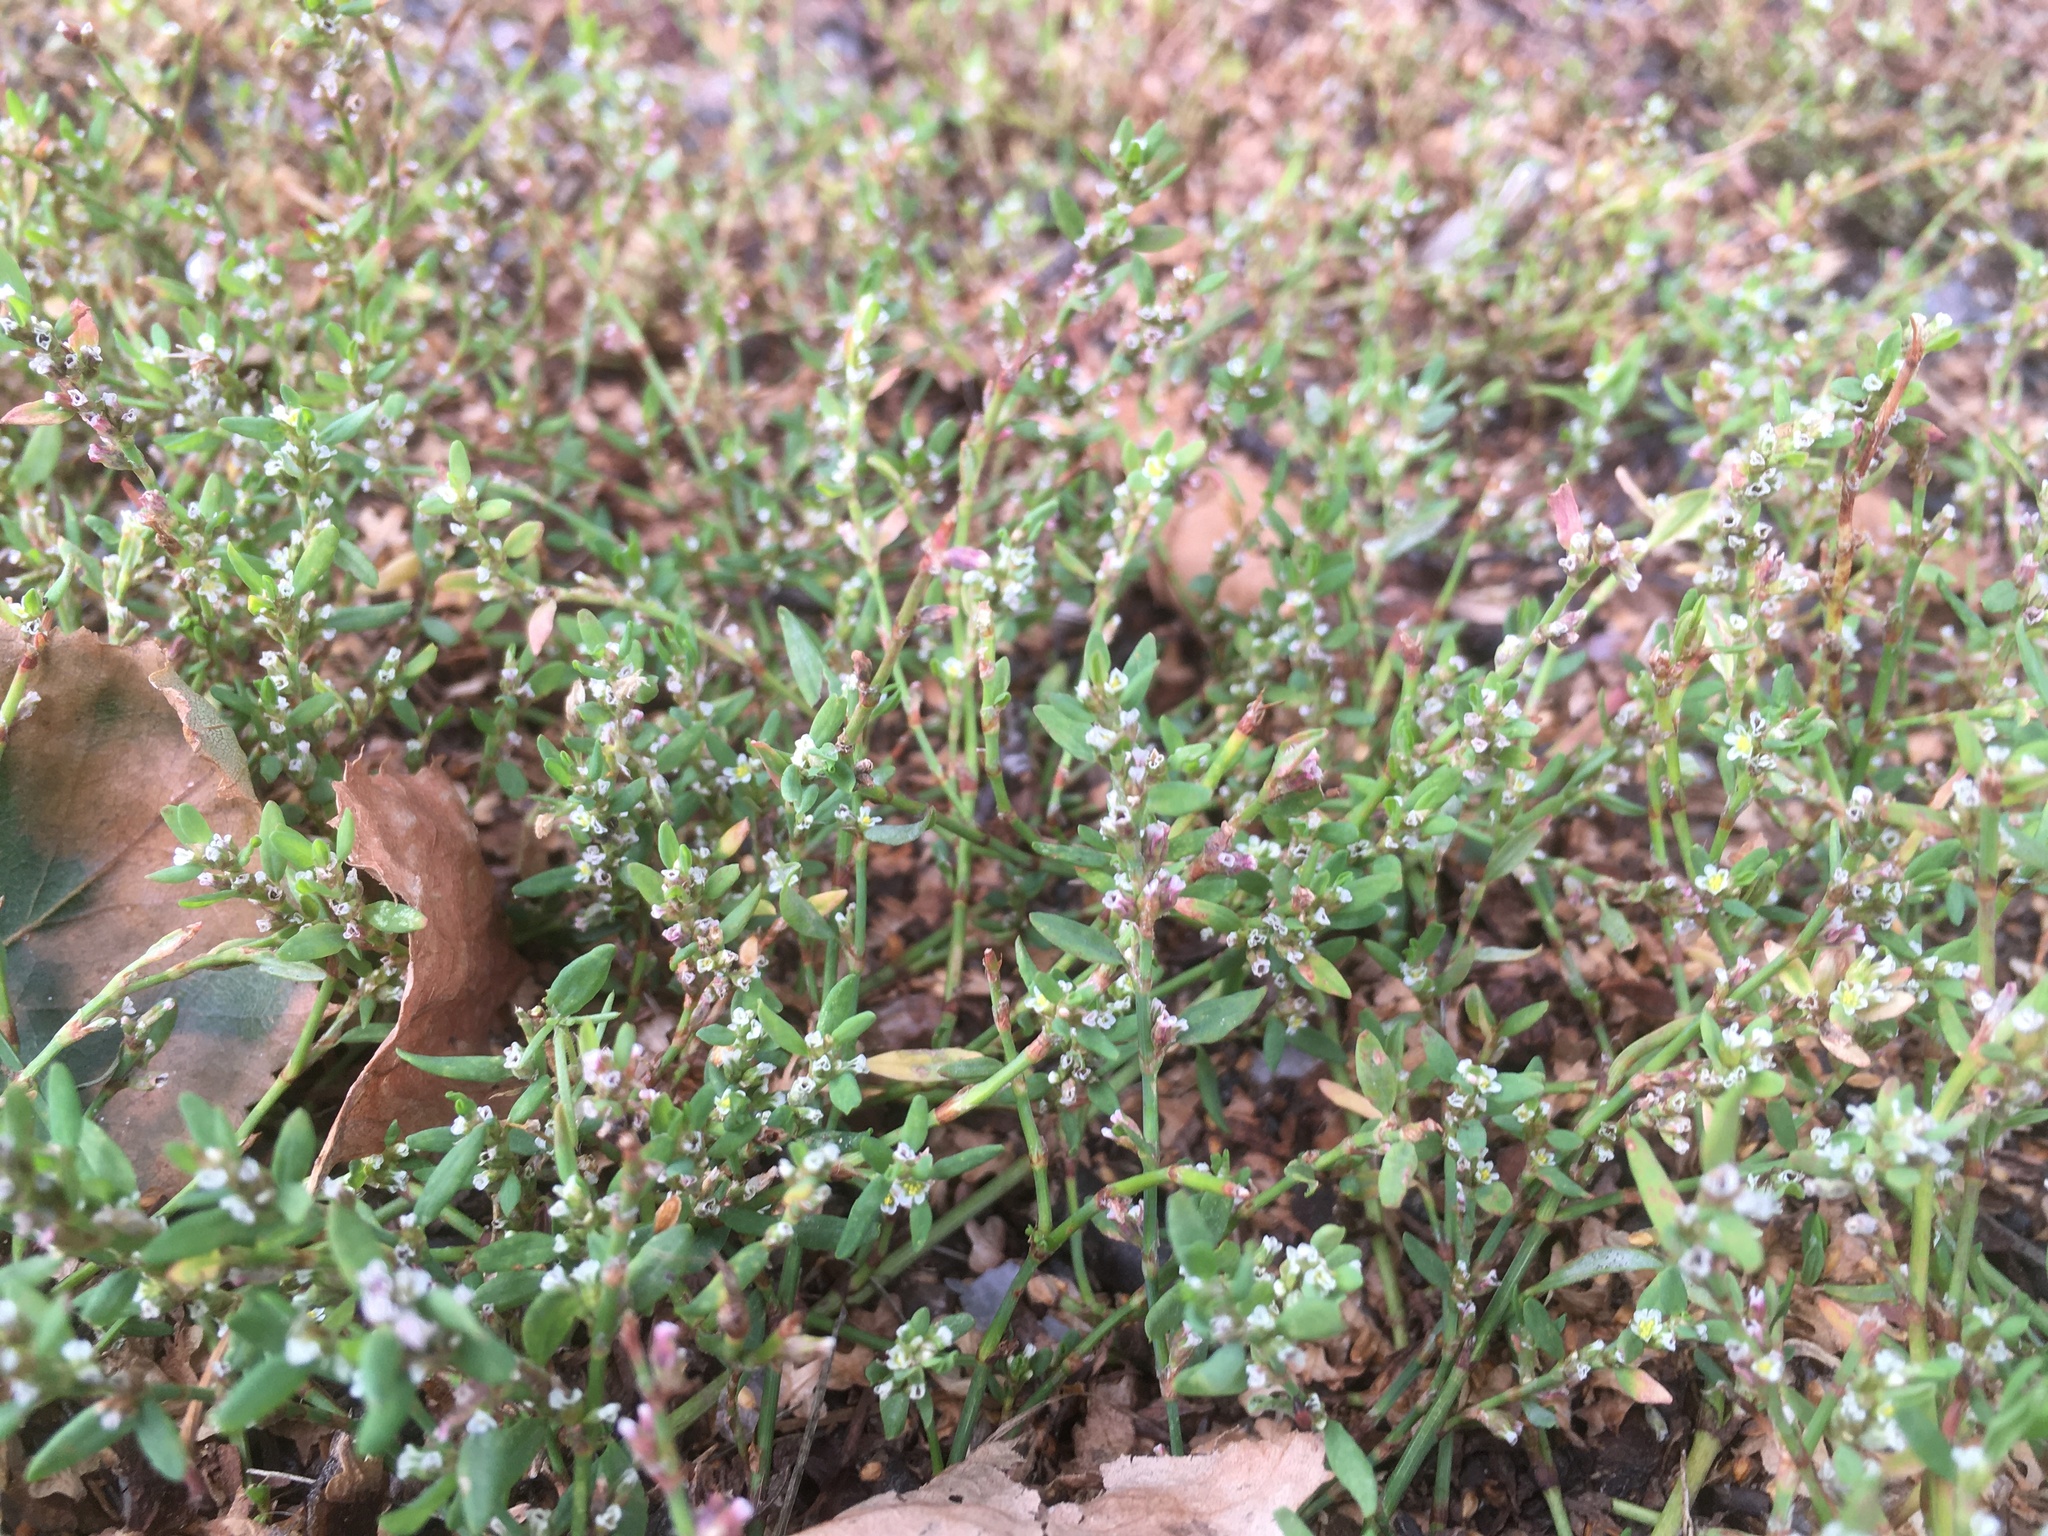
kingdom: Plantae
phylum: Tracheophyta
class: Magnoliopsida
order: Caryophyllales
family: Polygonaceae
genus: Polygonum
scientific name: Polygonum aviculare
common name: Prostrate knotweed
